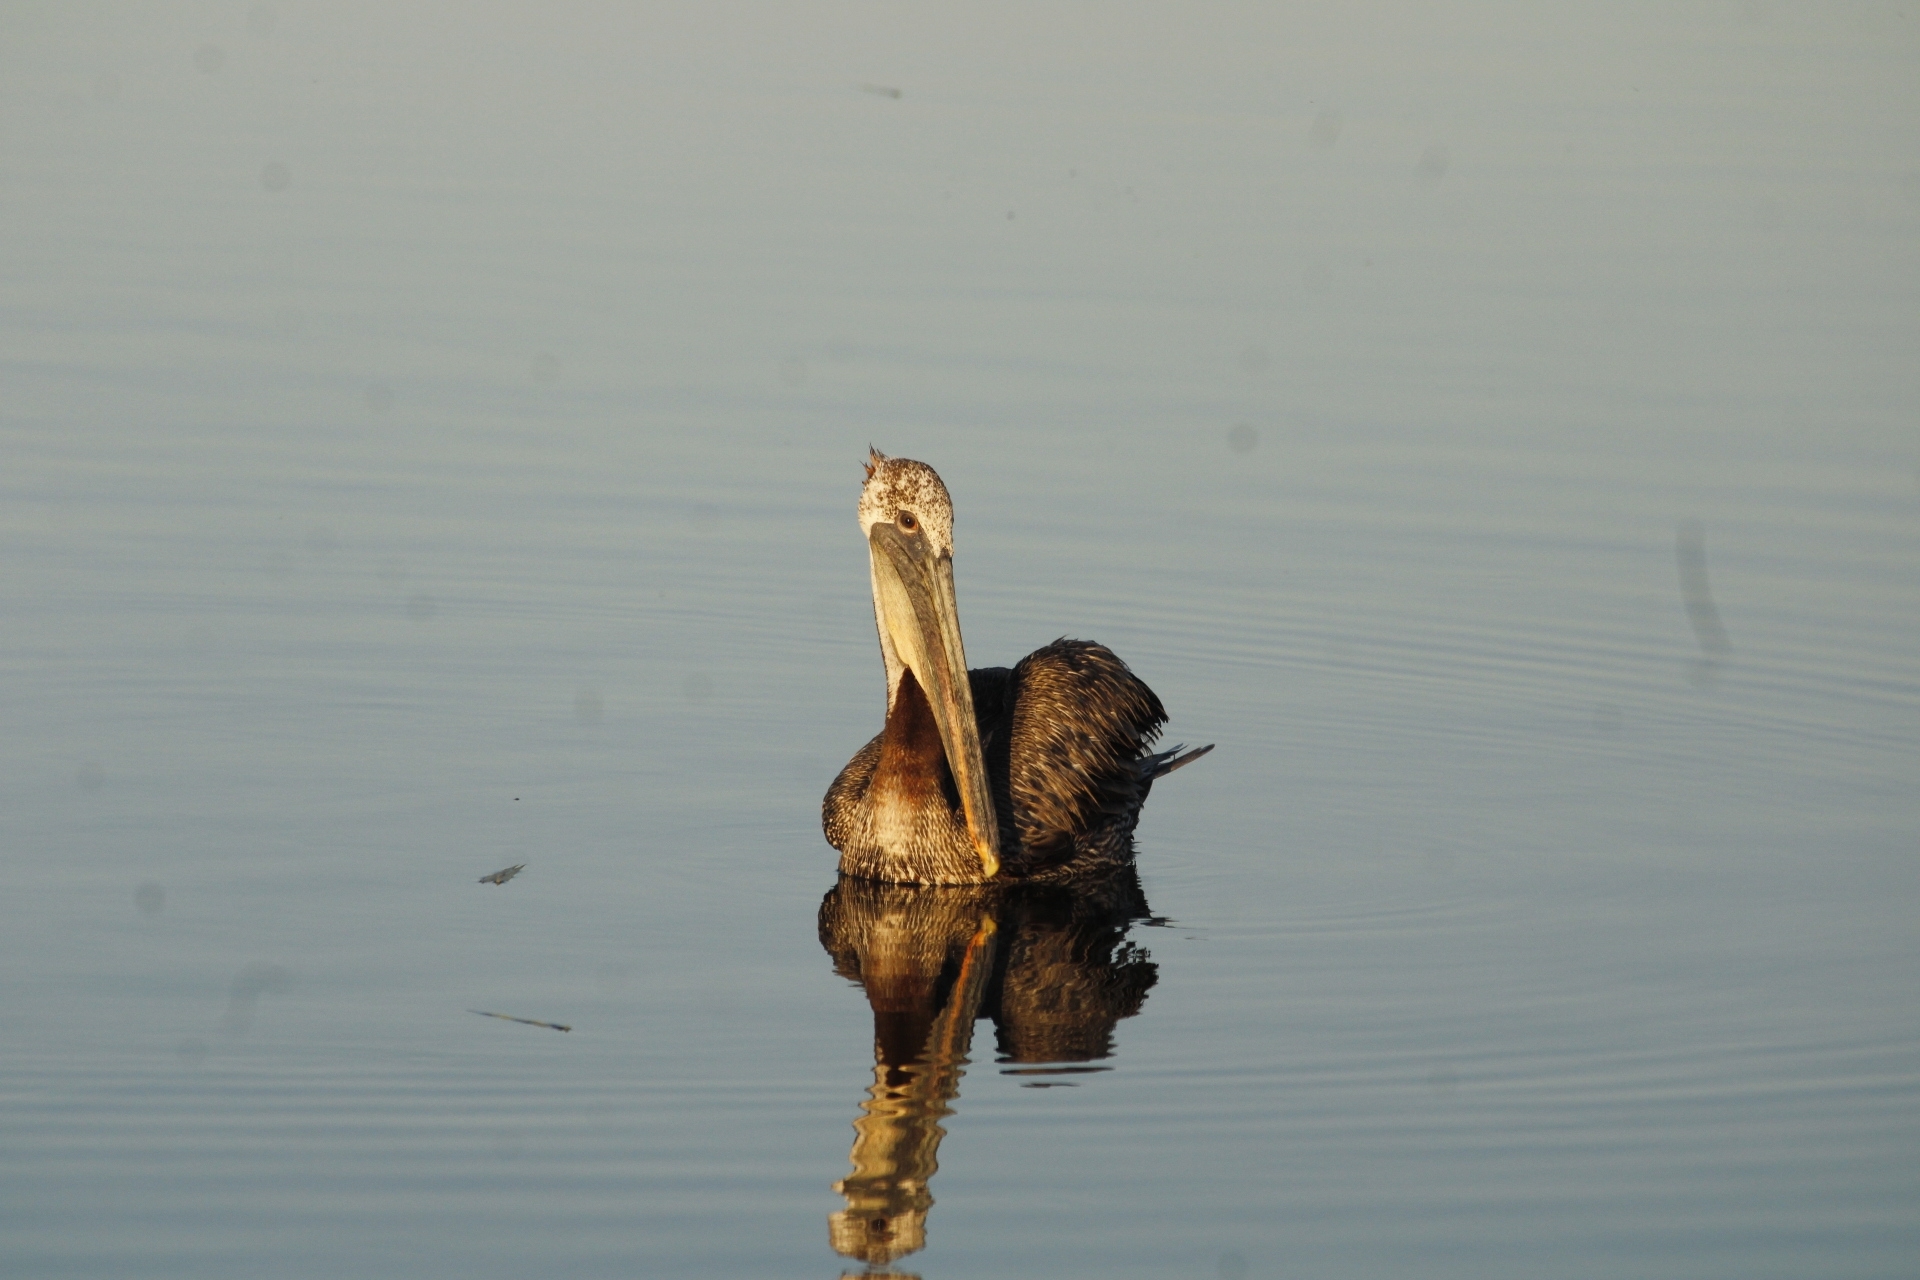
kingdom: Animalia
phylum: Chordata
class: Aves
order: Pelecaniformes
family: Pelecanidae
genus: Pelecanus
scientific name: Pelecanus occidentalis
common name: Brown pelican
